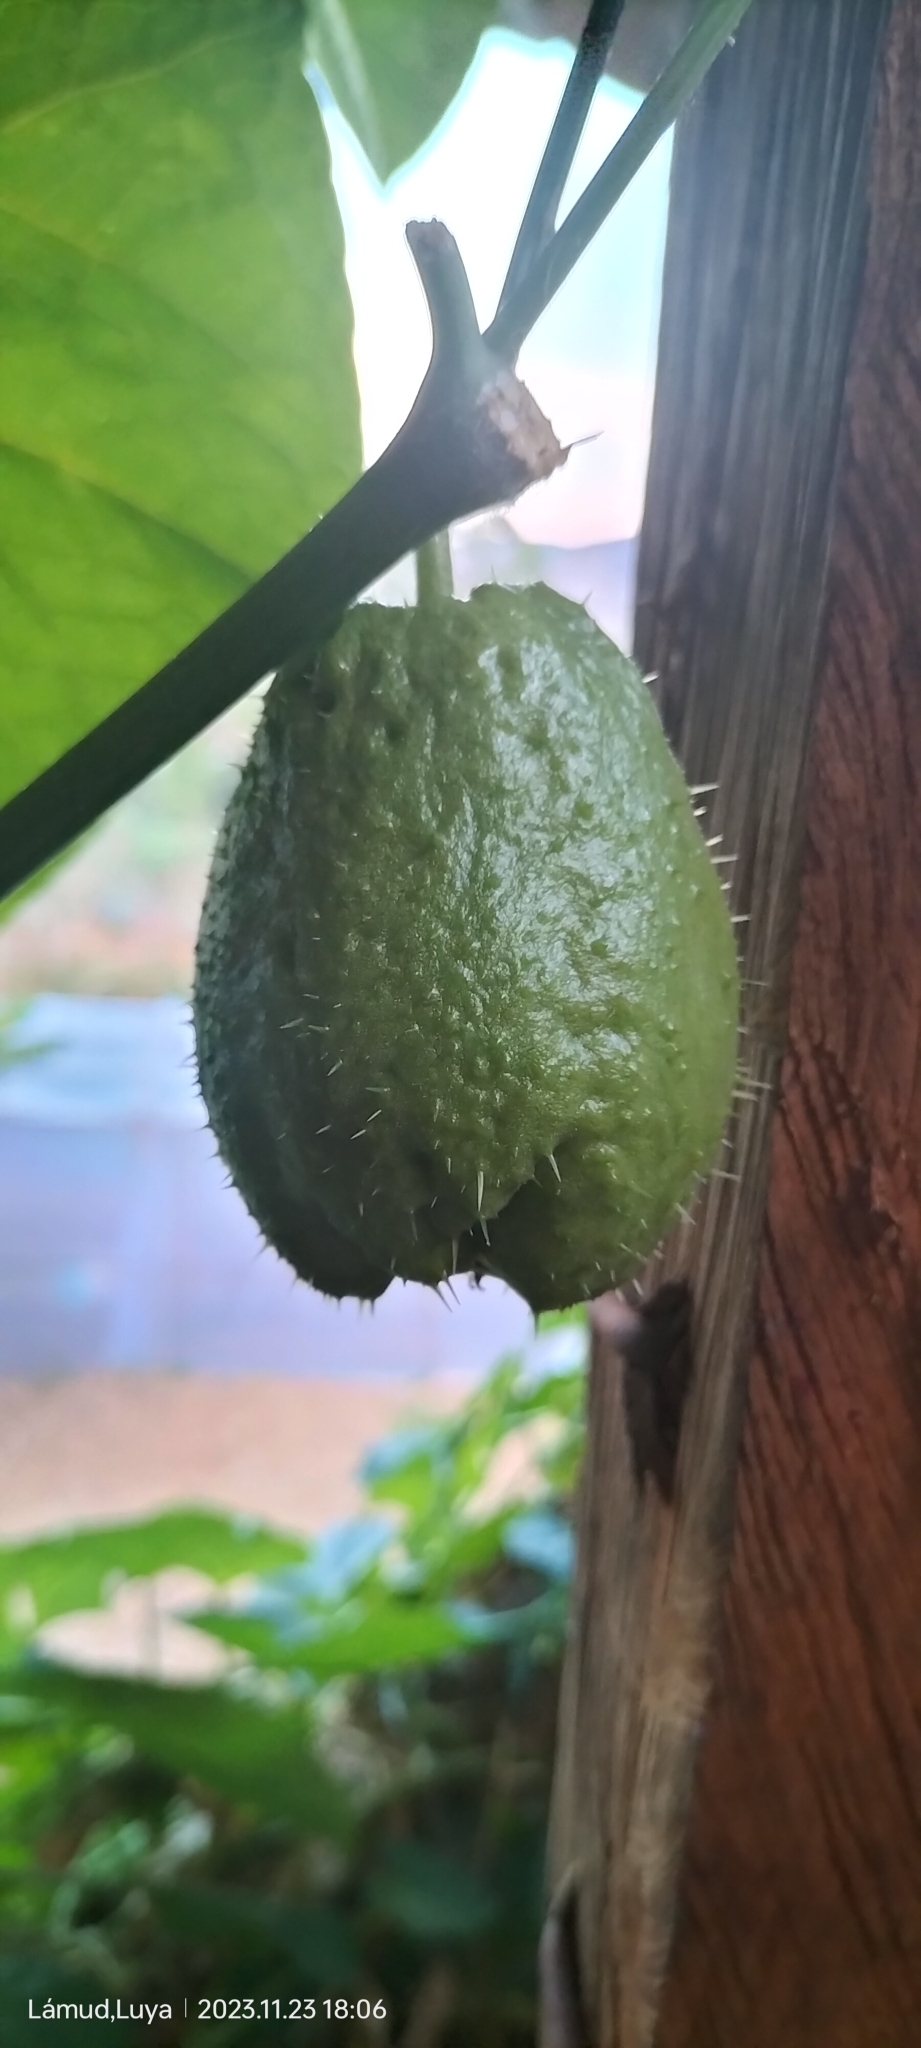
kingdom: Plantae
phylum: Tracheophyta
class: Magnoliopsida
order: Cucurbitales
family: Cucurbitaceae
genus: Sechium
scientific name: Sechium edule
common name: Chayote
